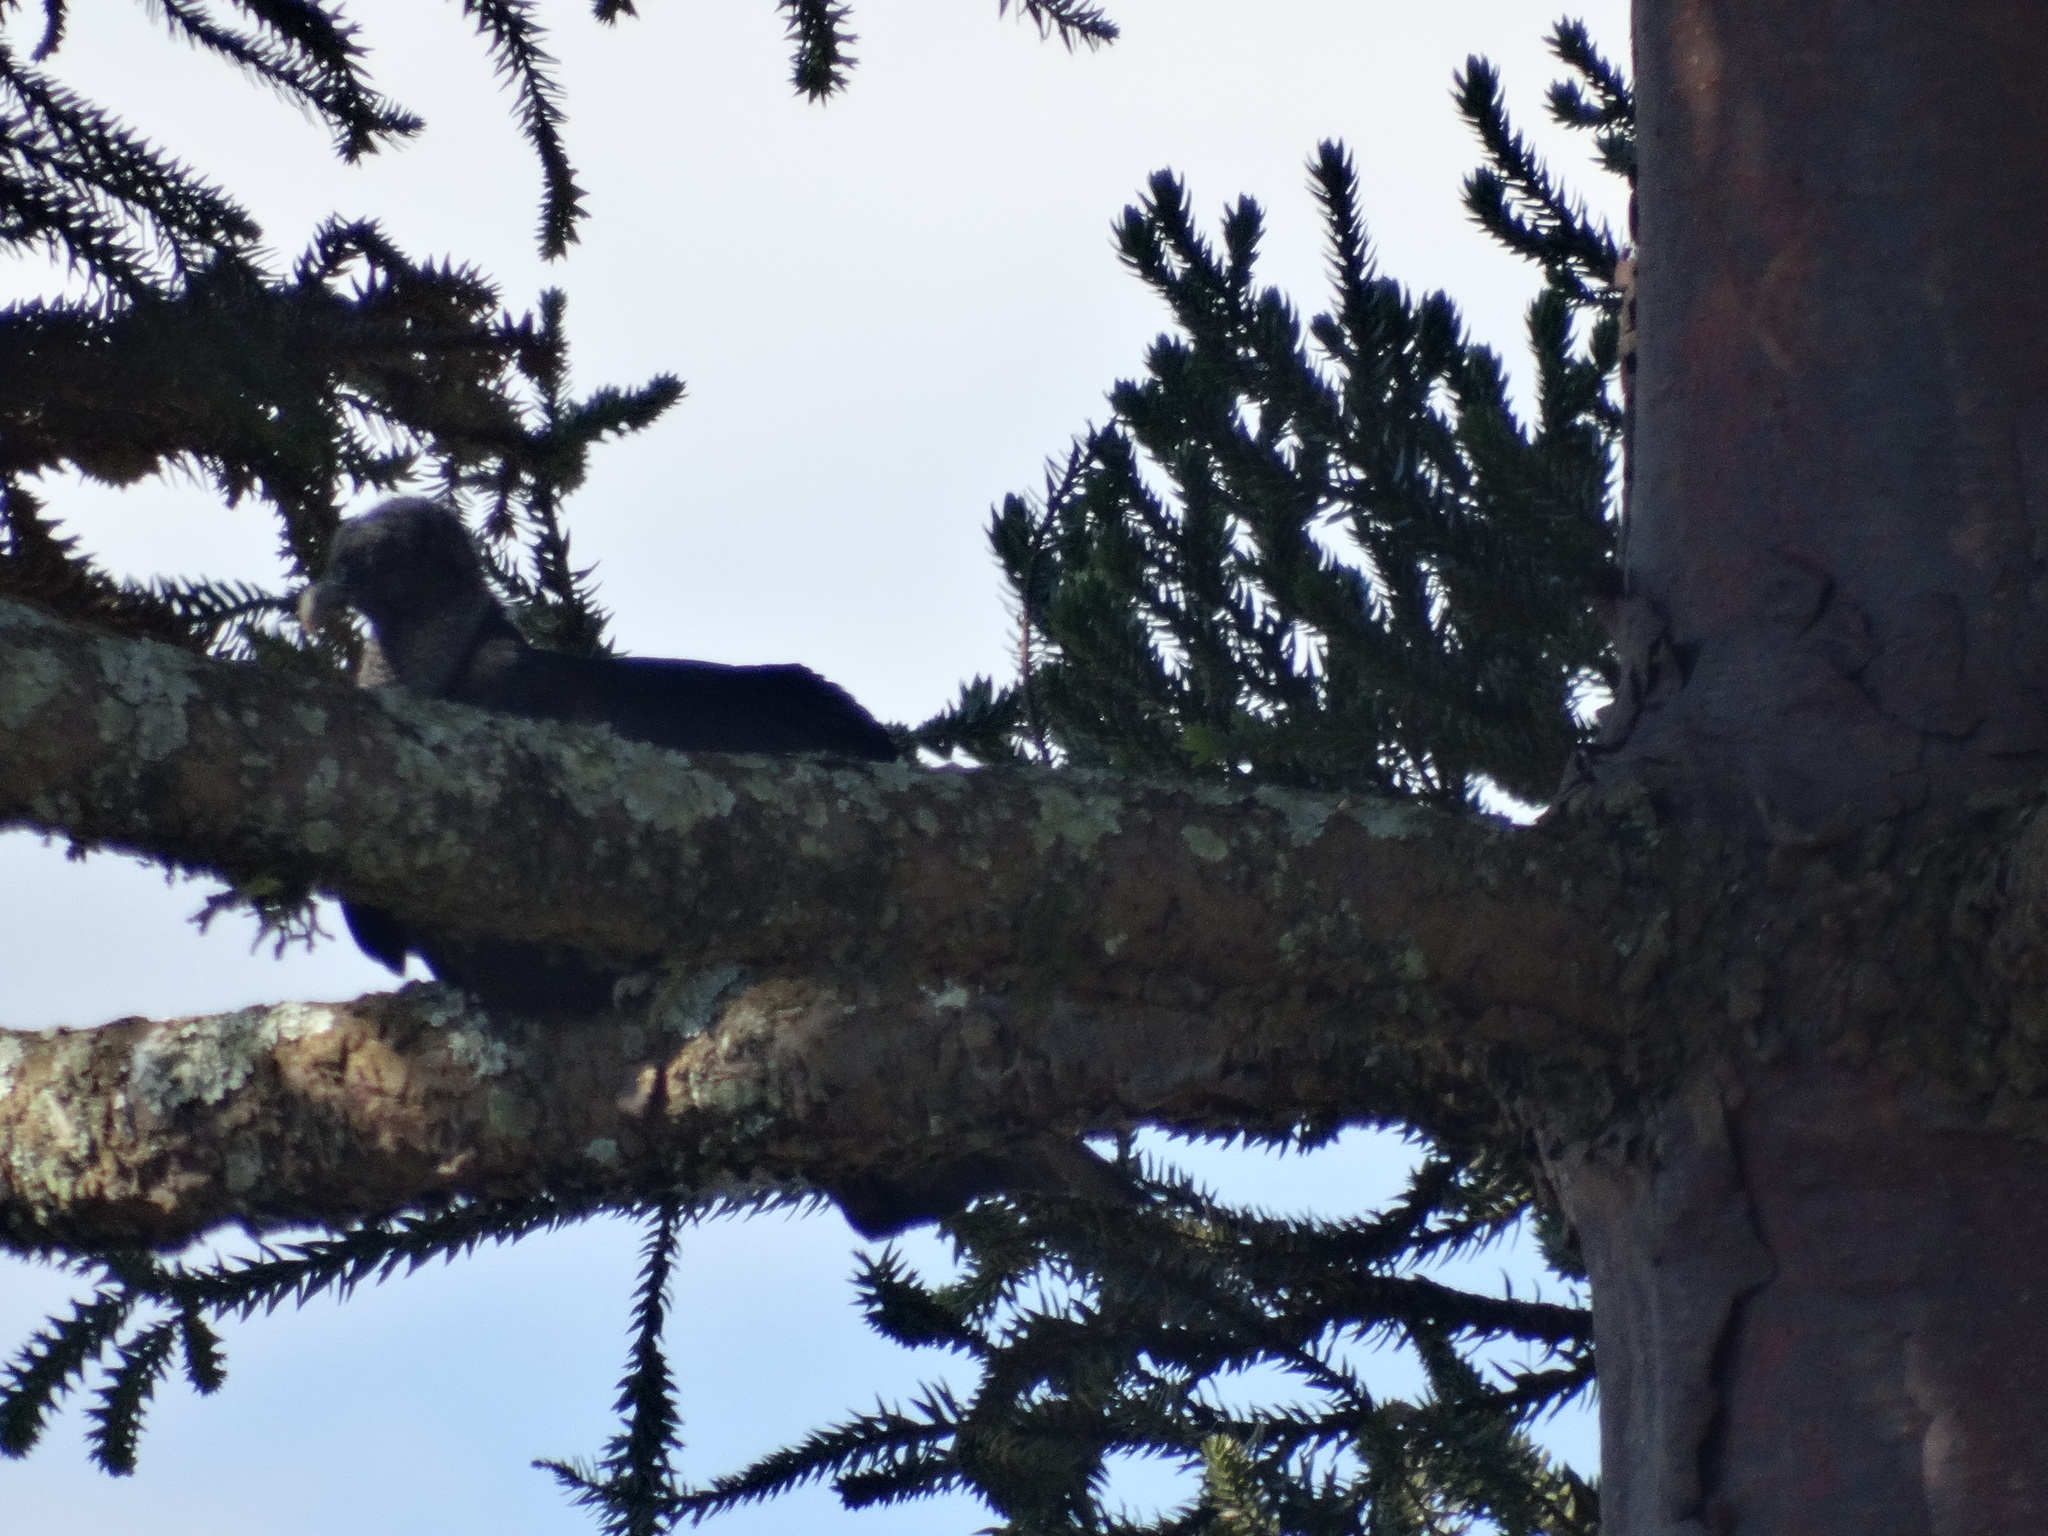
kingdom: Animalia
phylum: Chordata
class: Aves
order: Accipitriformes
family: Cathartidae
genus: Coragyps
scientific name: Coragyps atratus
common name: Black vulture
